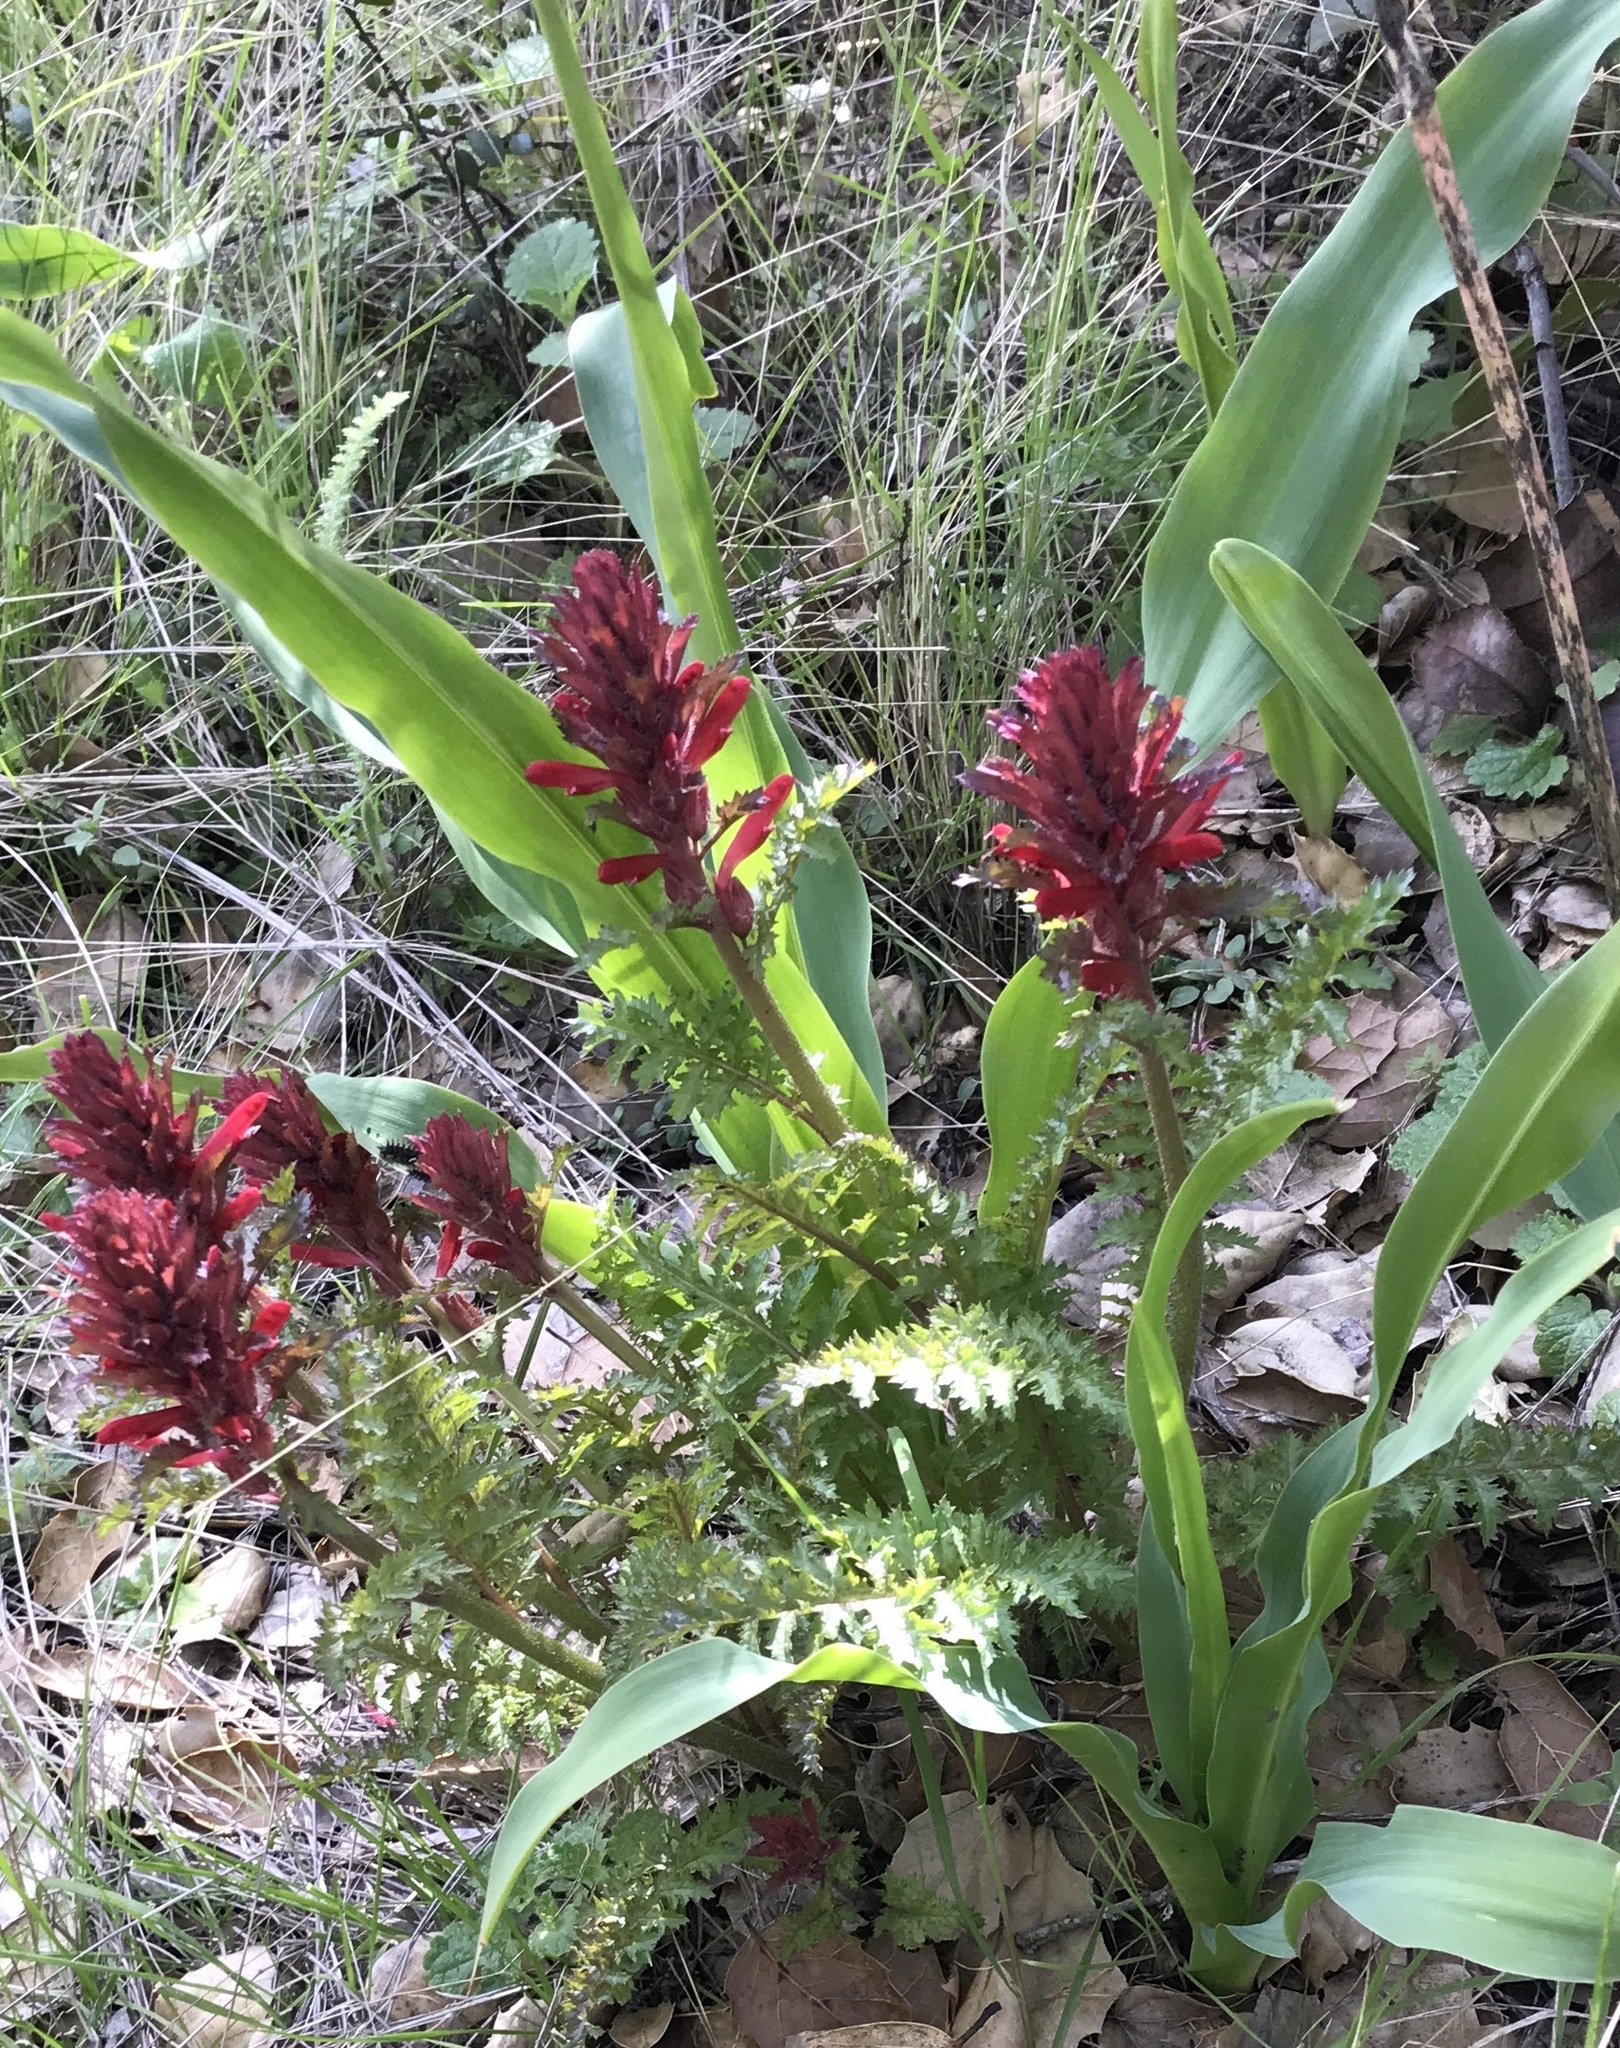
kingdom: Plantae
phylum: Tracheophyta
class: Magnoliopsida
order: Lamiales
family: Orobanchaceae
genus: Pedicularis
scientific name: Pedicularis densiflora
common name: Indian warrior
